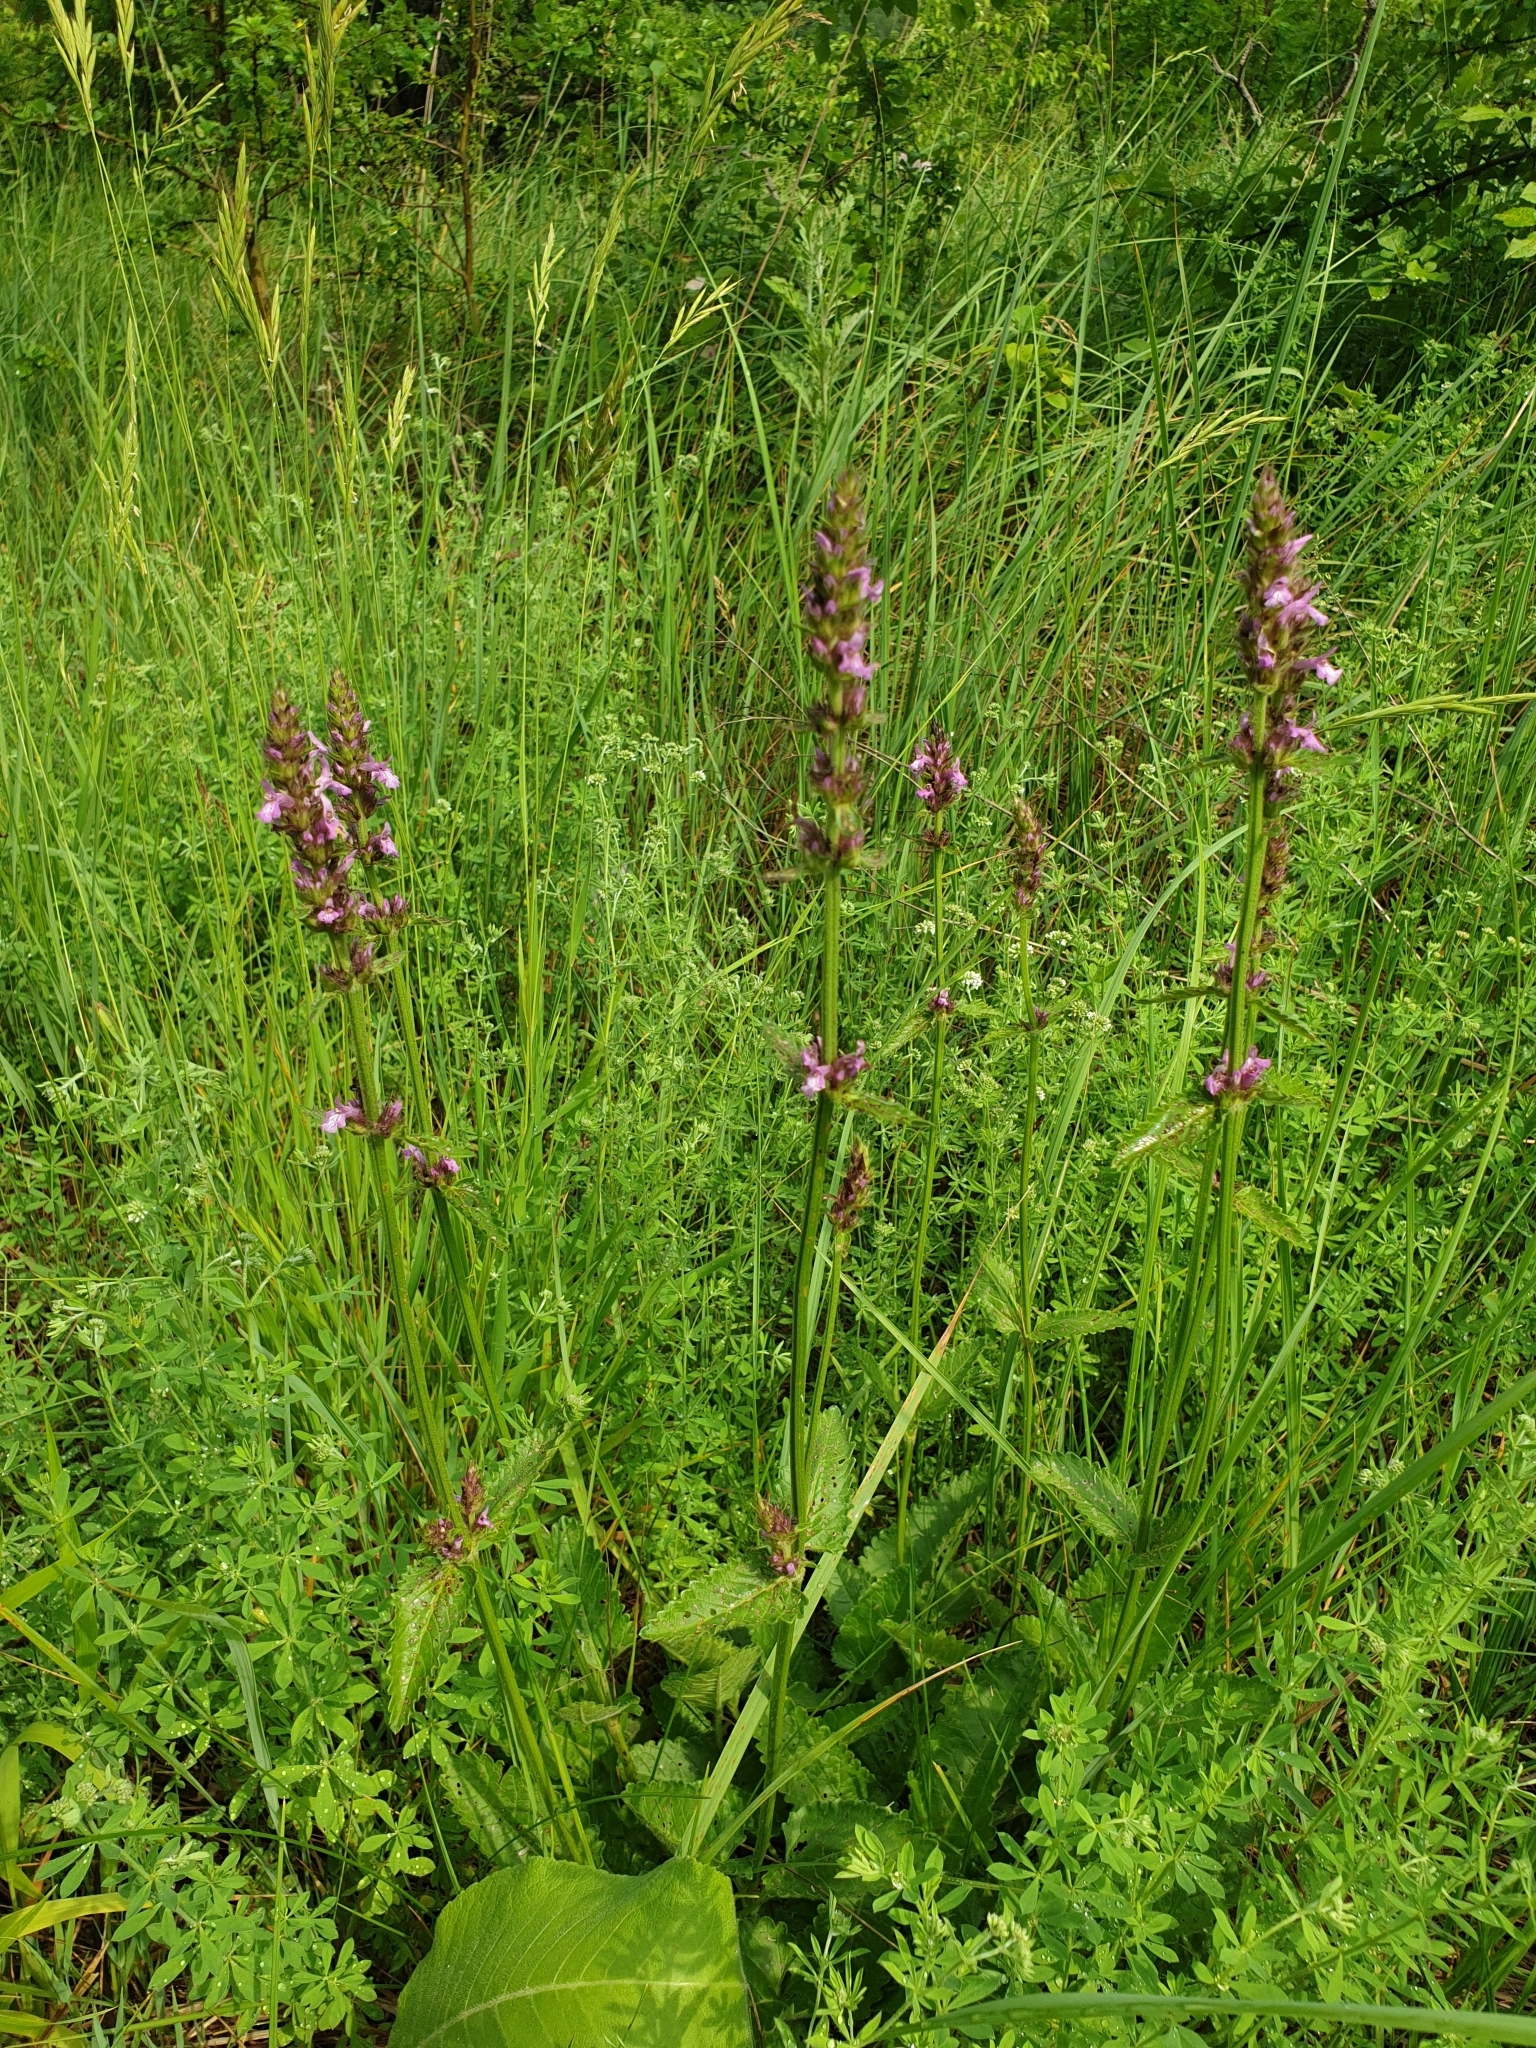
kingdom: Plantae
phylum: Tracheophyta
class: Magnoliopsida
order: Lamiales
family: Lamiaceae
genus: Betonica
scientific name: Betonica officinalis
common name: Bishop's-wort
